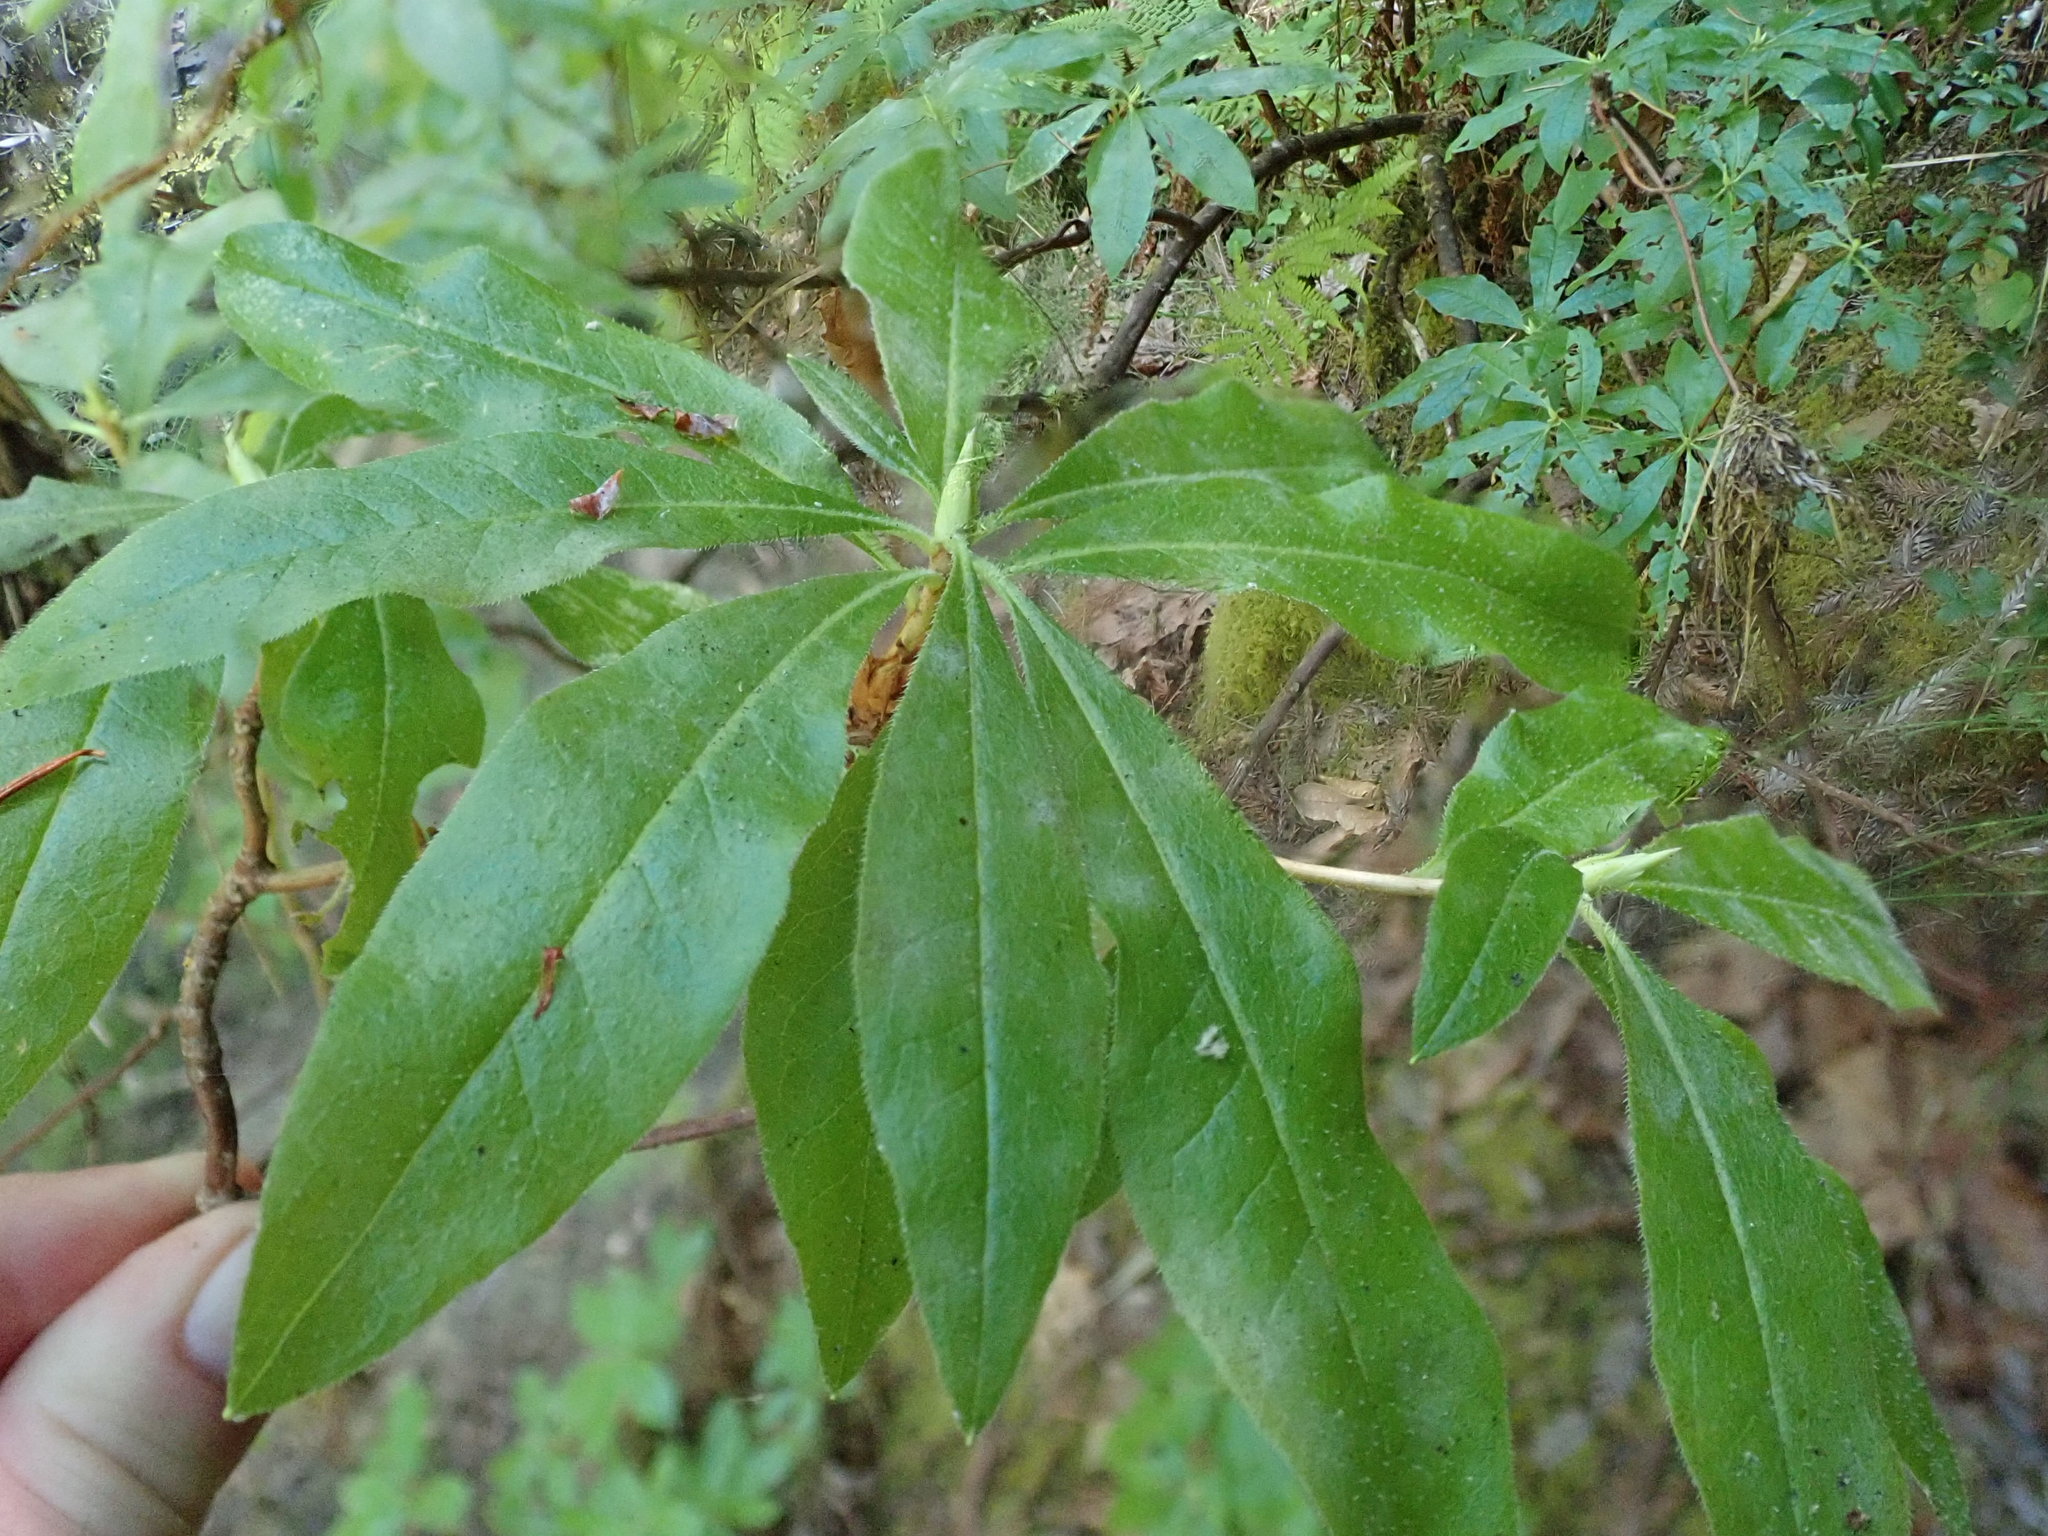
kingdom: Plantae
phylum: Tracheophyta
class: Magnoliopsida
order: Ericales
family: Ericaceae
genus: Rhododendron
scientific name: Rhododendron occidentale
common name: Western azalea
